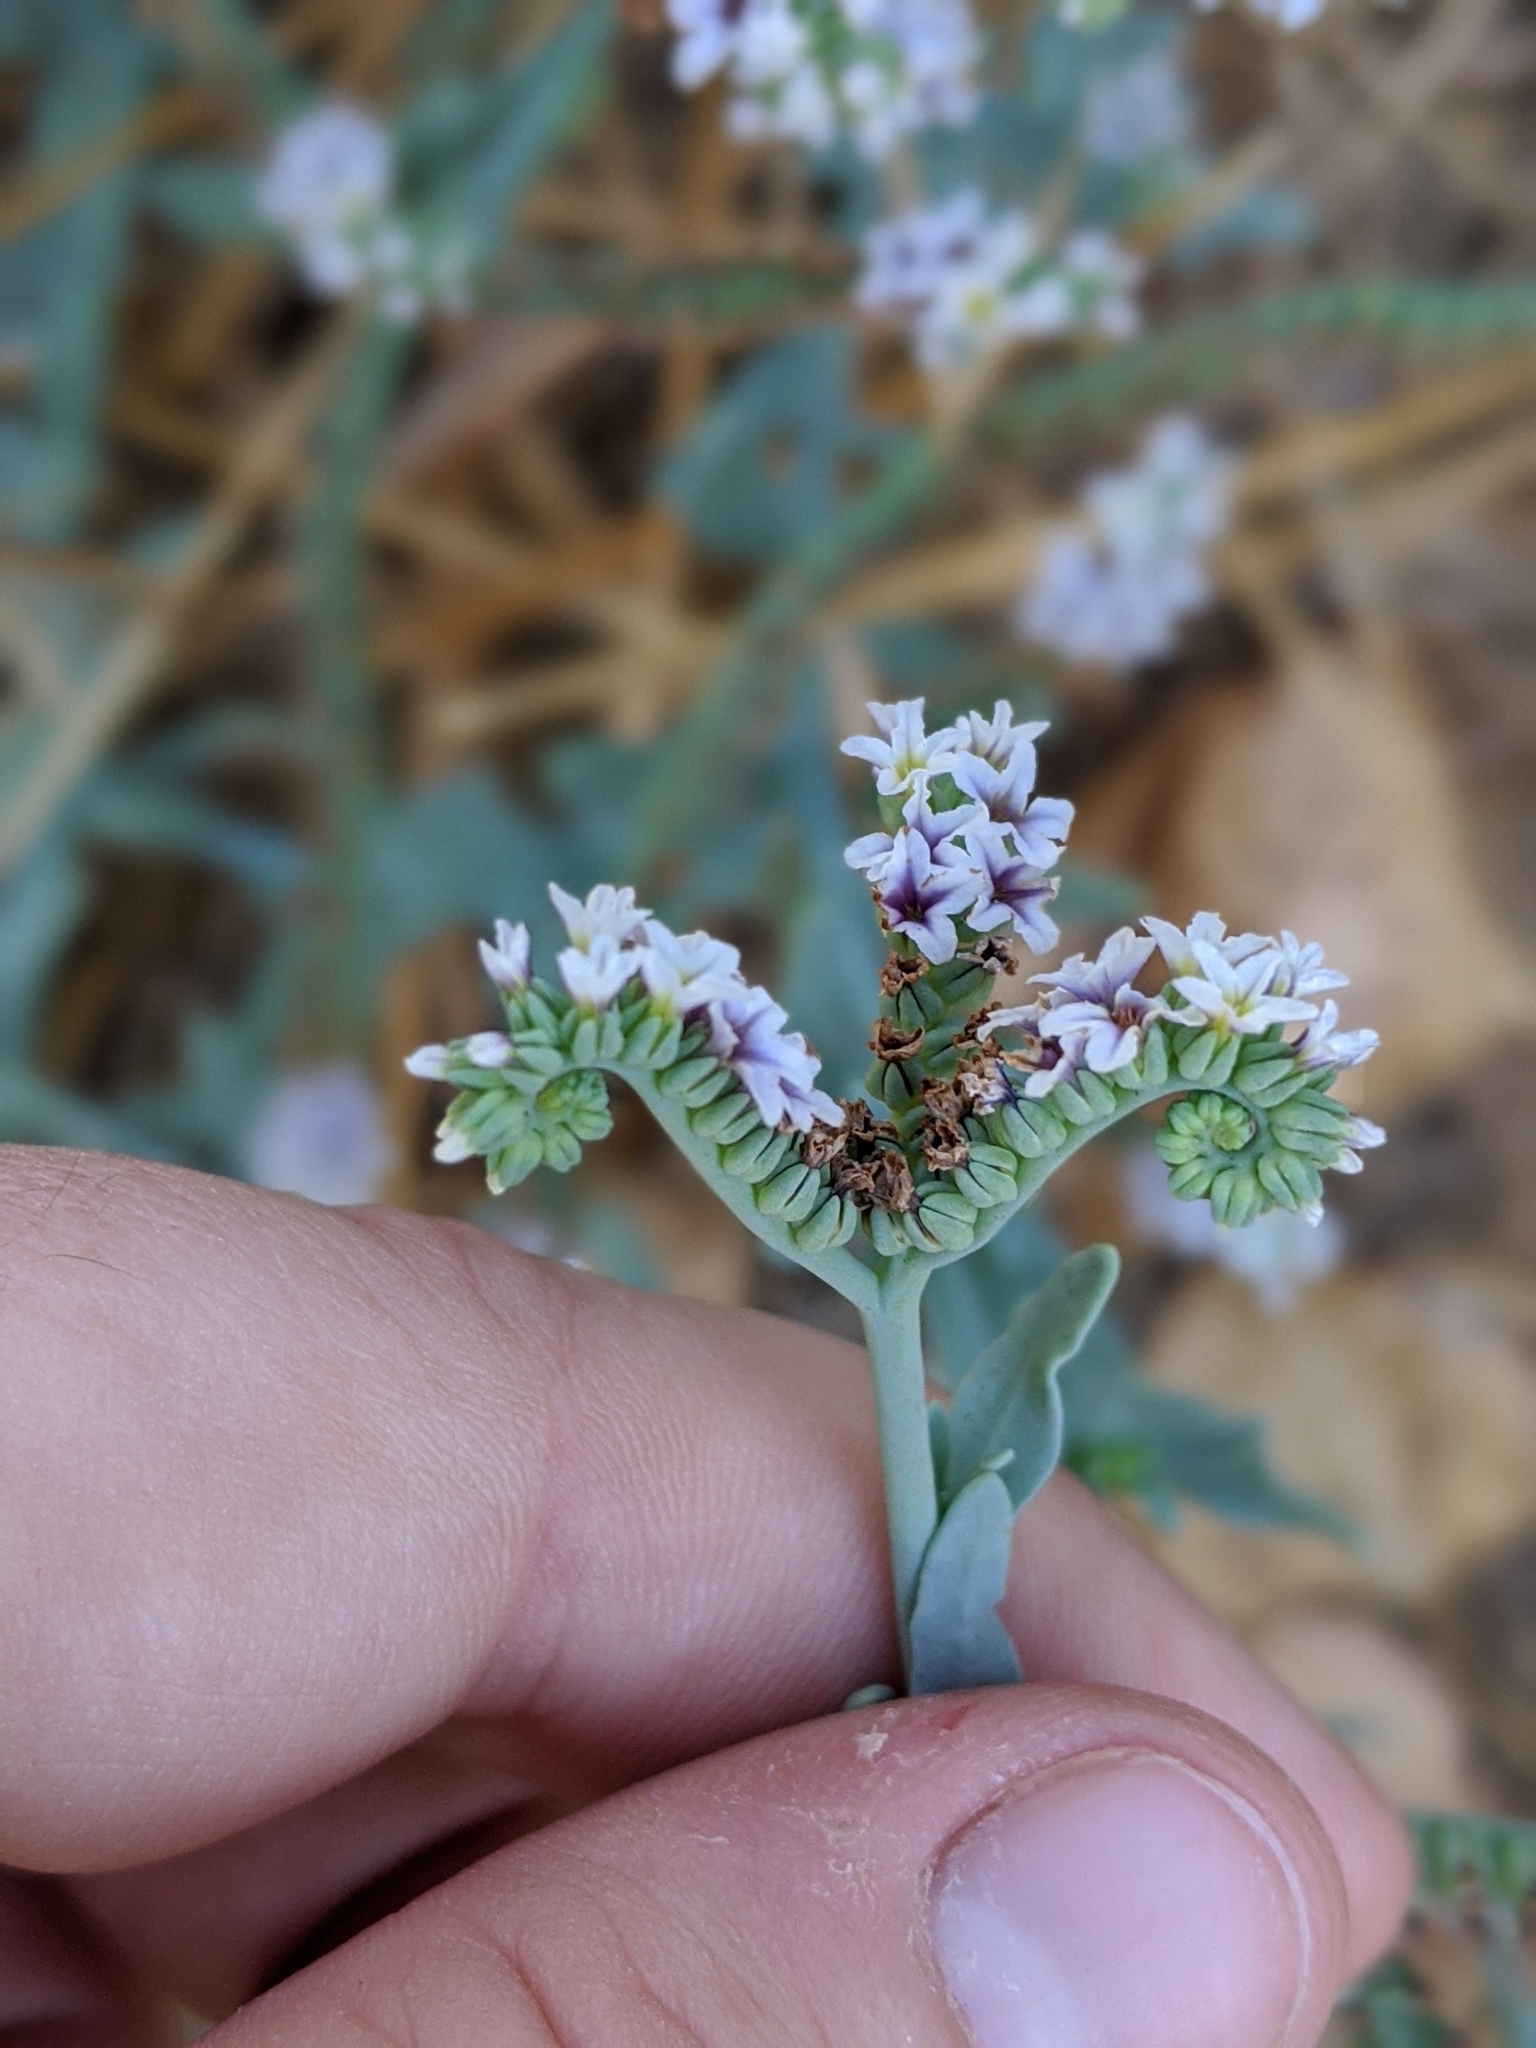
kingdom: Plantae
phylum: Tracheophyta
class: Magnoliopsida
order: Boraginales
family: Heliotropiaceae
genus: Heliotropium
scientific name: Heliotropium curassavicum
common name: Seaside heliotrope
